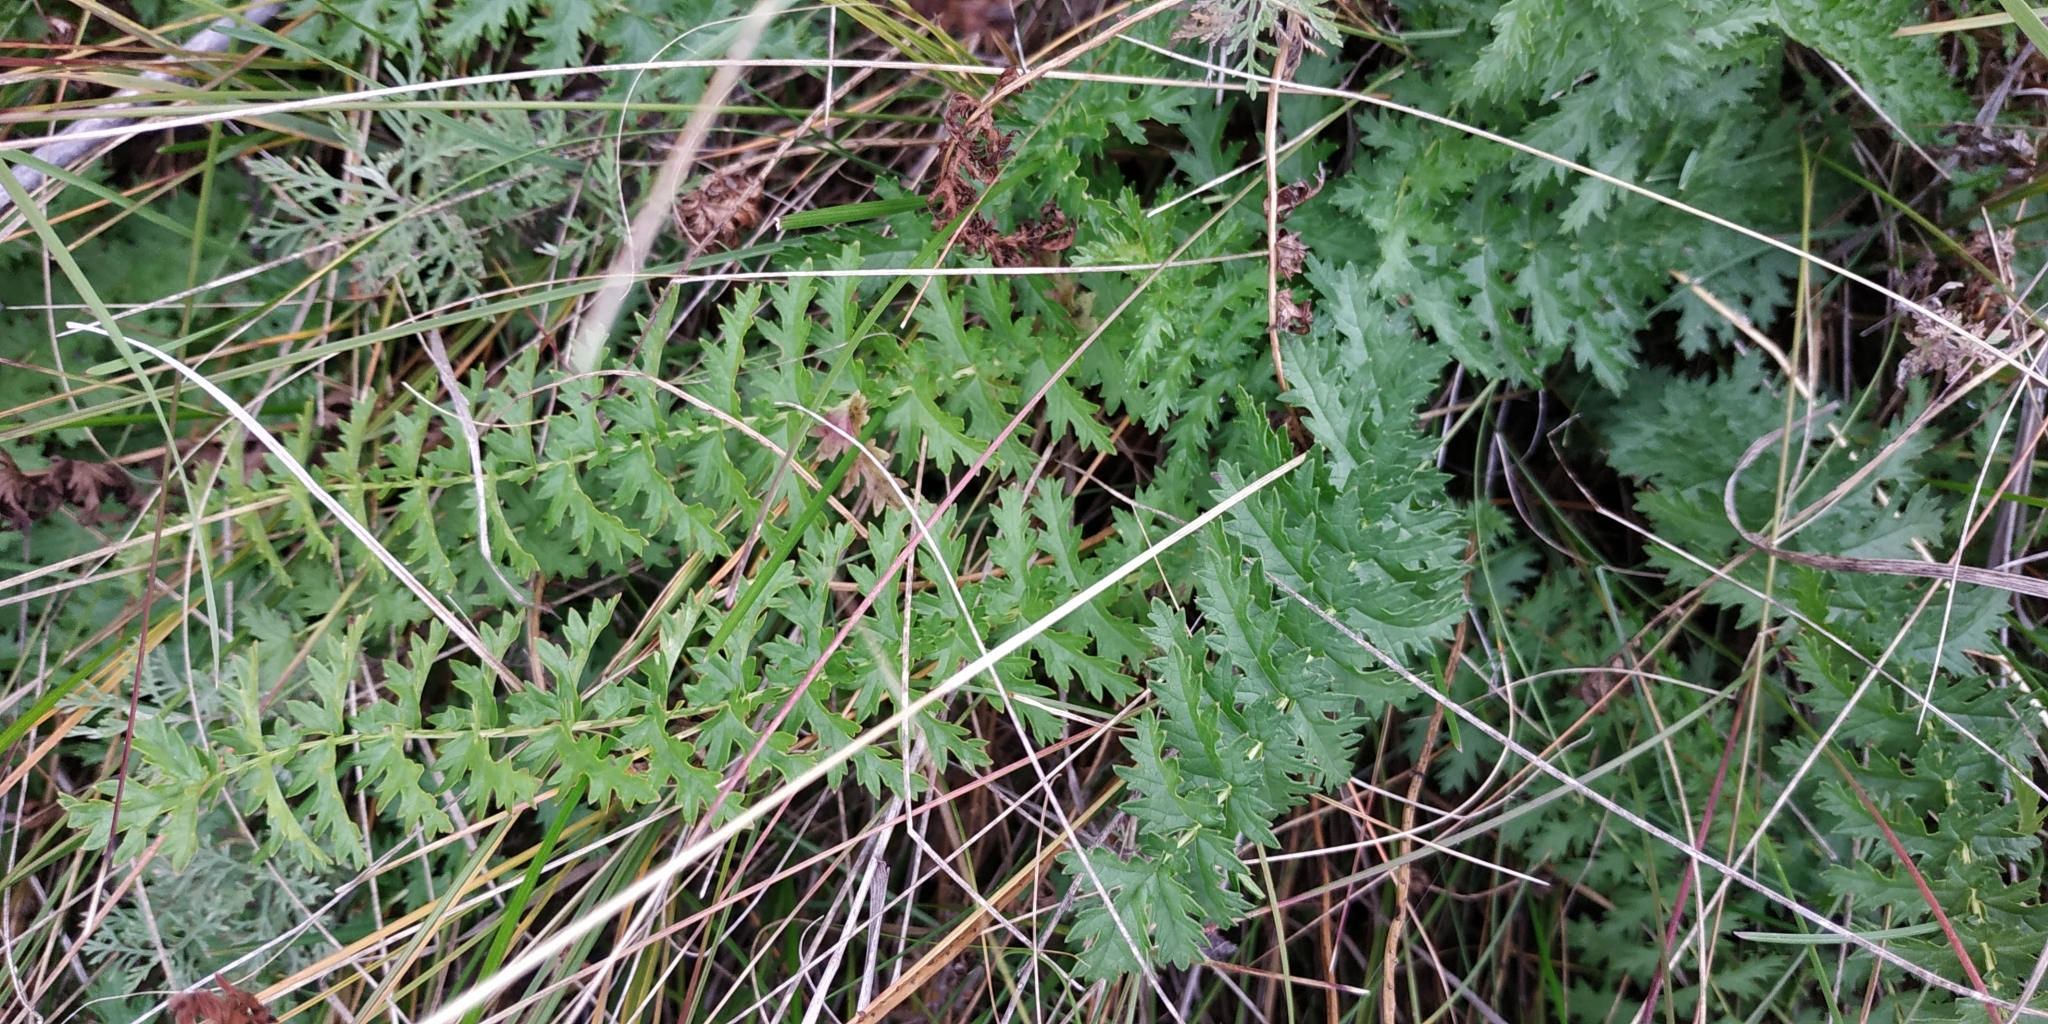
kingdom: Plantae
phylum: Tracheophyta
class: Magnoliopsida
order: Rosales
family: Rosaceae
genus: Filipendula
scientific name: Filipendula vulgaris
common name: Dropwort
